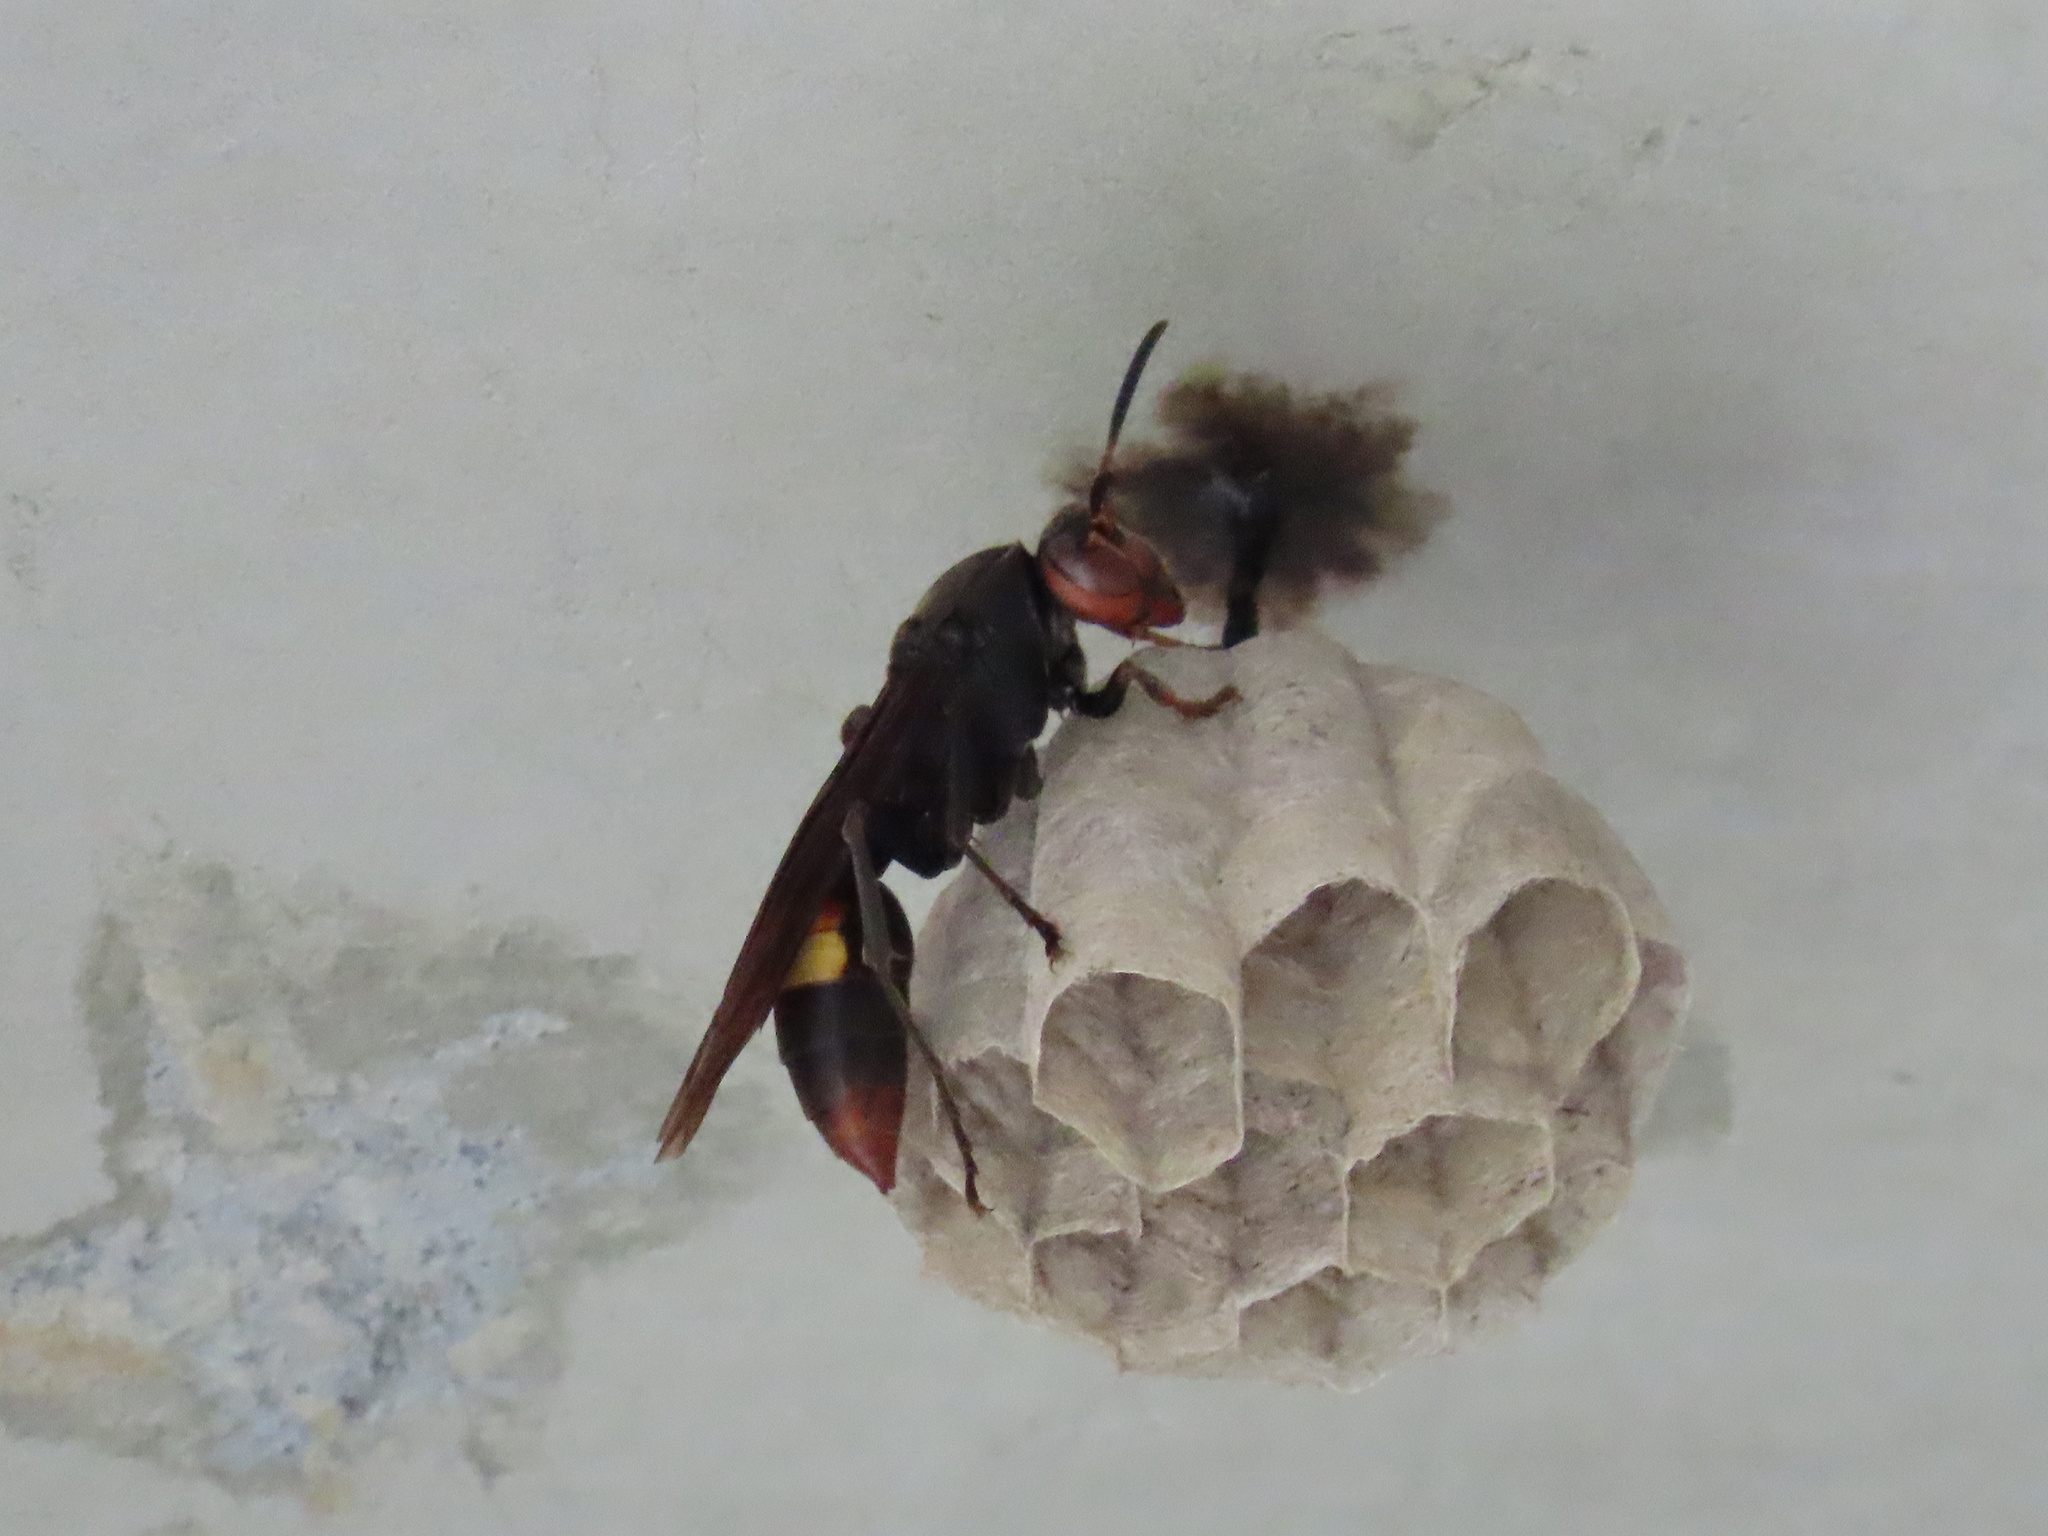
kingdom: Animalia
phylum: Arthropoda
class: Insecta
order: Hymenoptera
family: Eumenidae
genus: Polistes
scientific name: Polistes sagittarius
